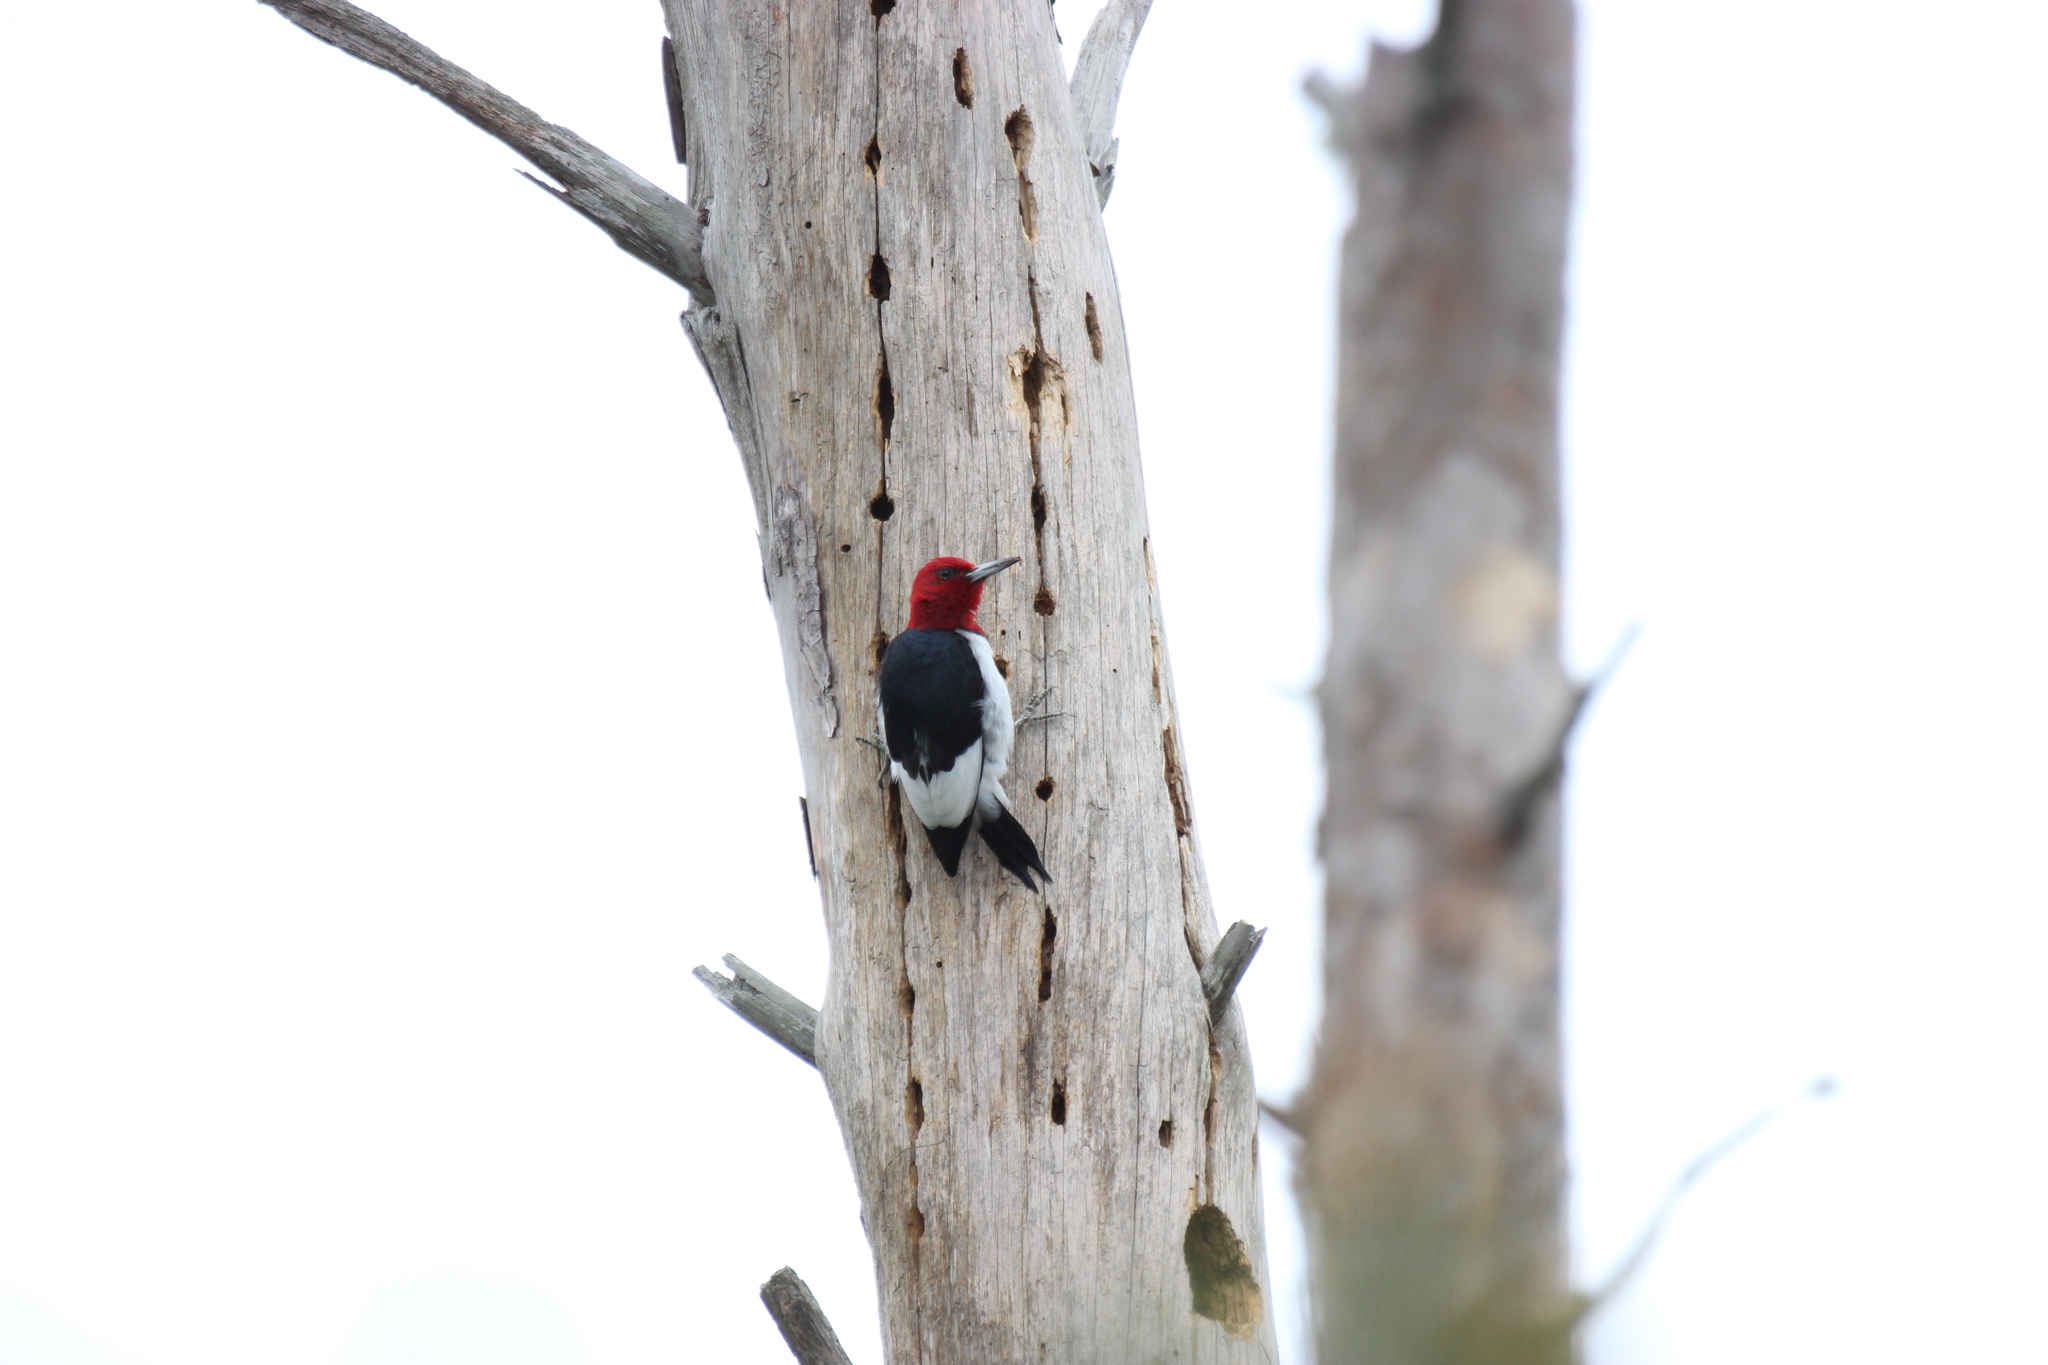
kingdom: Animalia
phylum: Chordata
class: Aves
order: Piciformes
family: Picidae
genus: Melanerpes
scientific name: Melanerpes erythrocephalus
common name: Red-headed woodpecker
